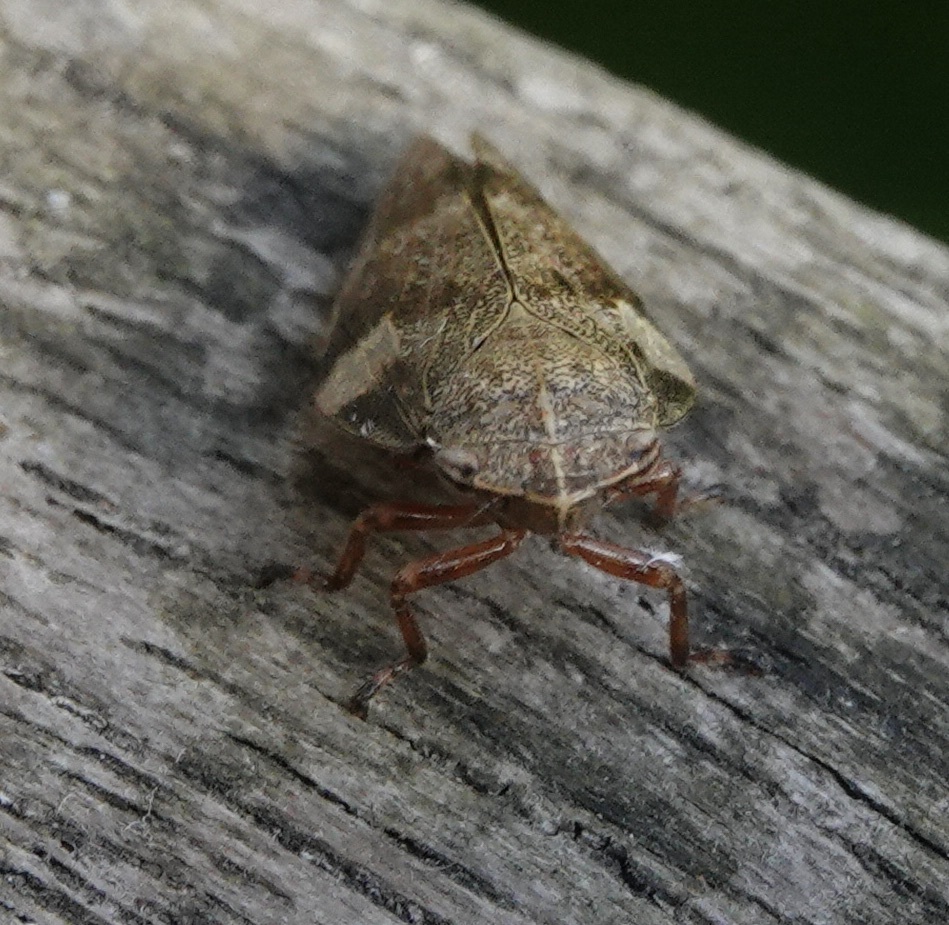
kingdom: Animalia
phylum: Arthropoda
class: Insecta
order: Hemiptera
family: Aphrophoridae
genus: Aphrophora
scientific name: Aphrophora alni
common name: European alder spittlebug
